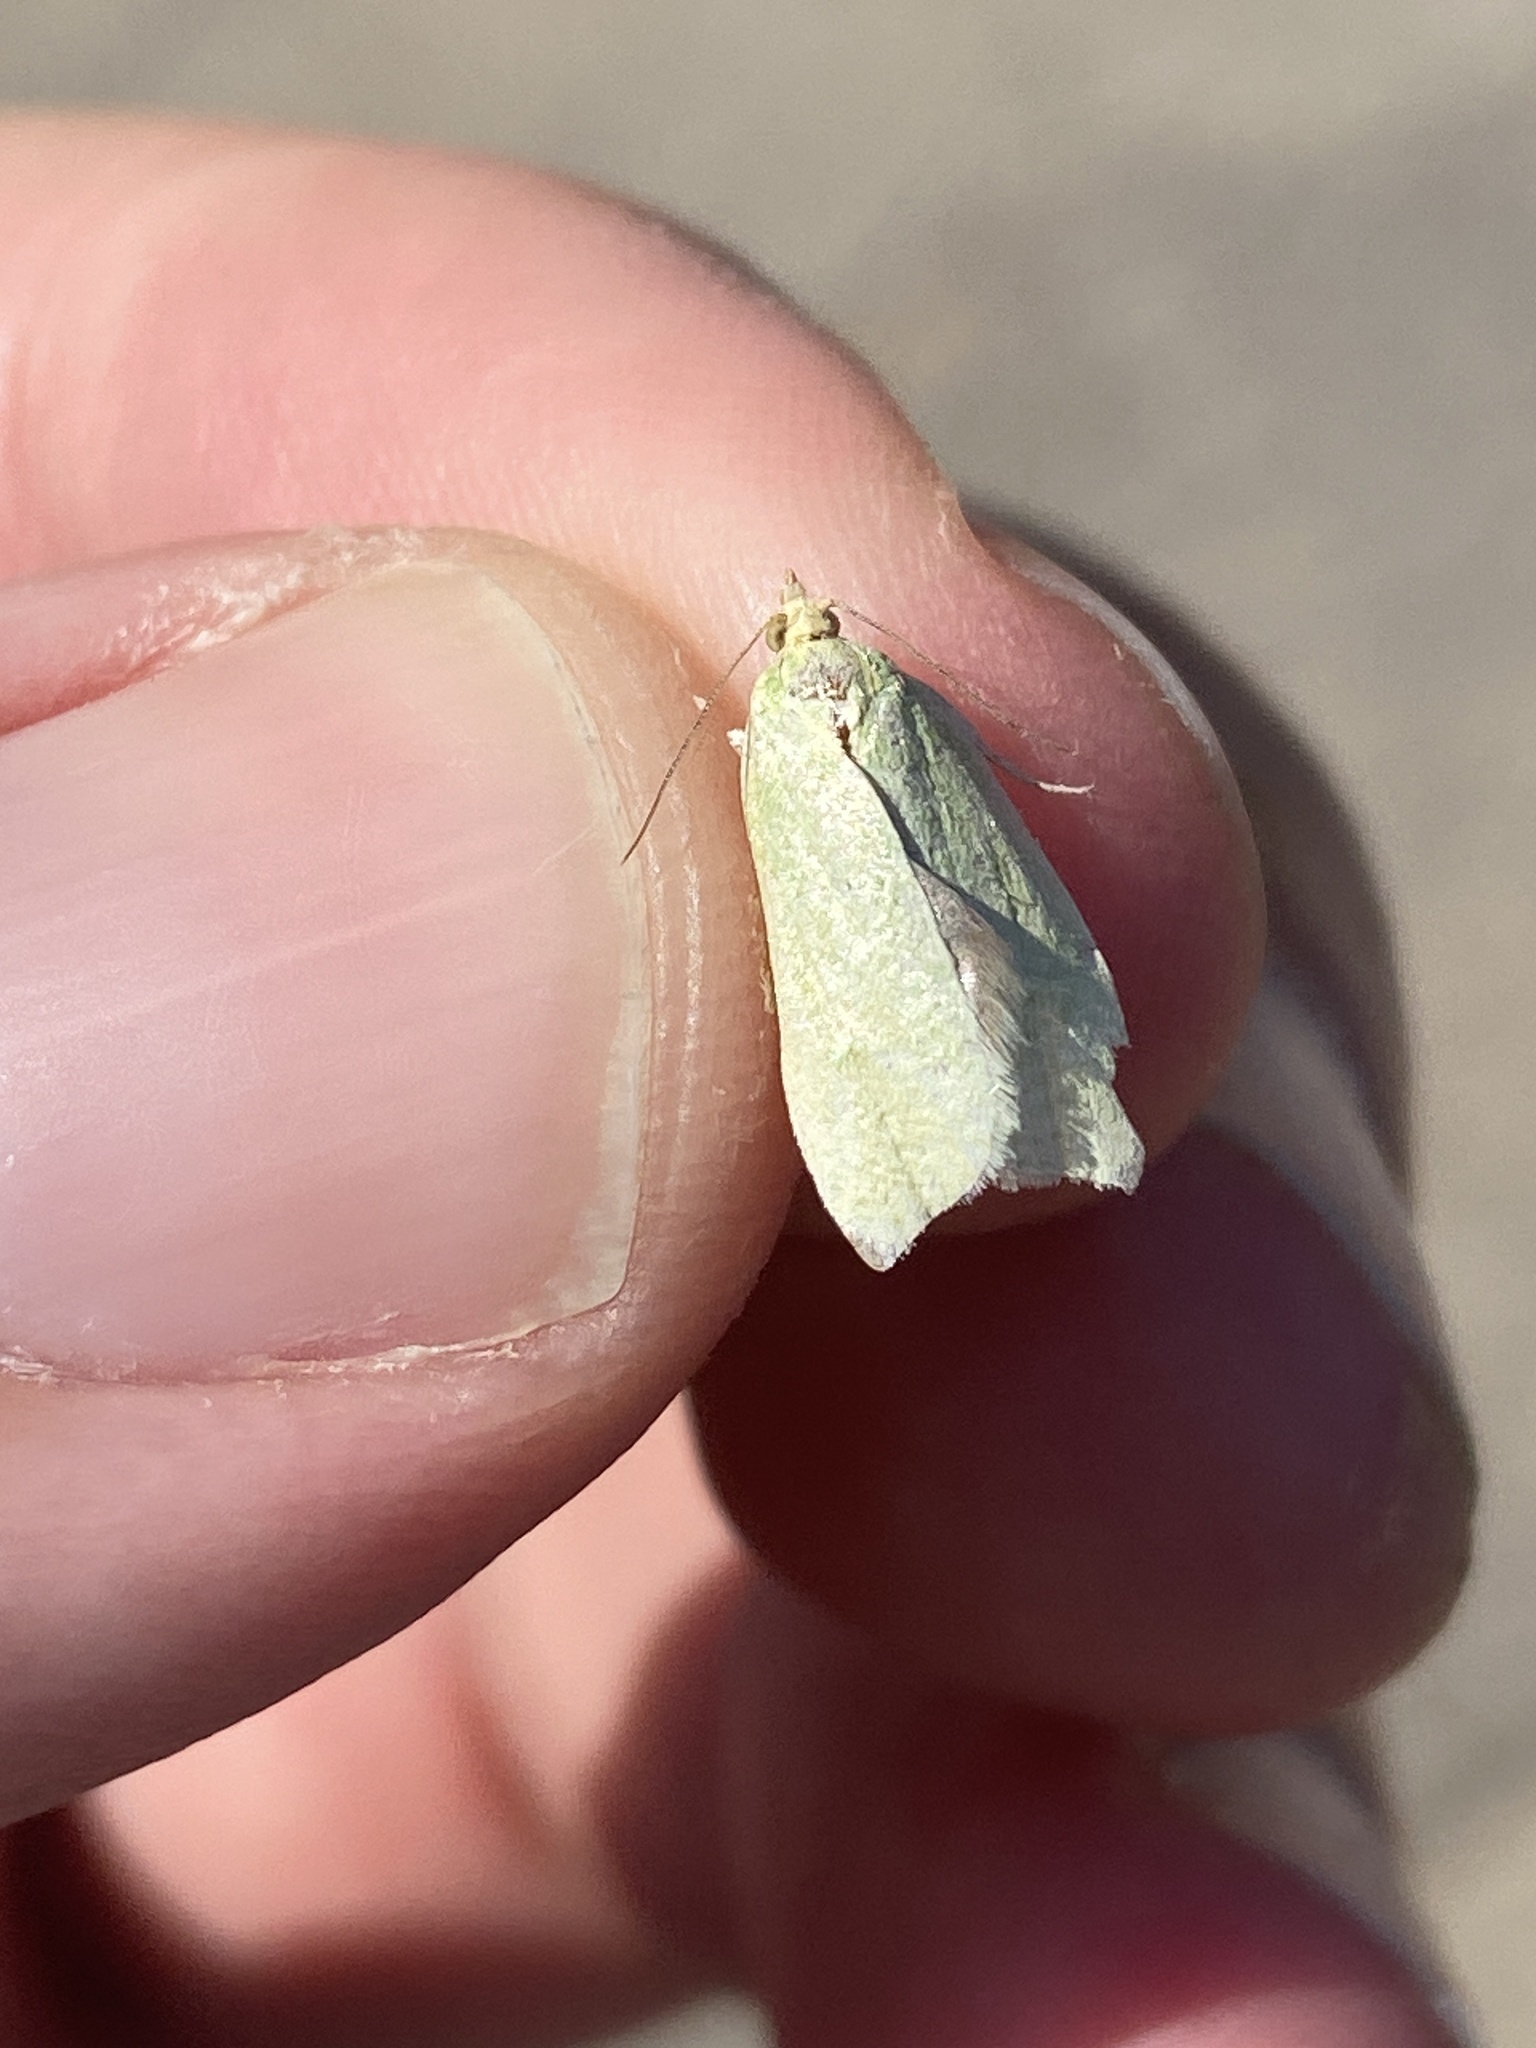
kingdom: Animalia
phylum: Arthropoda
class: Insecta
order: Lepidoptera
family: Tortricidae
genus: Tortrix
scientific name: Tortrix viridana
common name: Green oak tortrix
